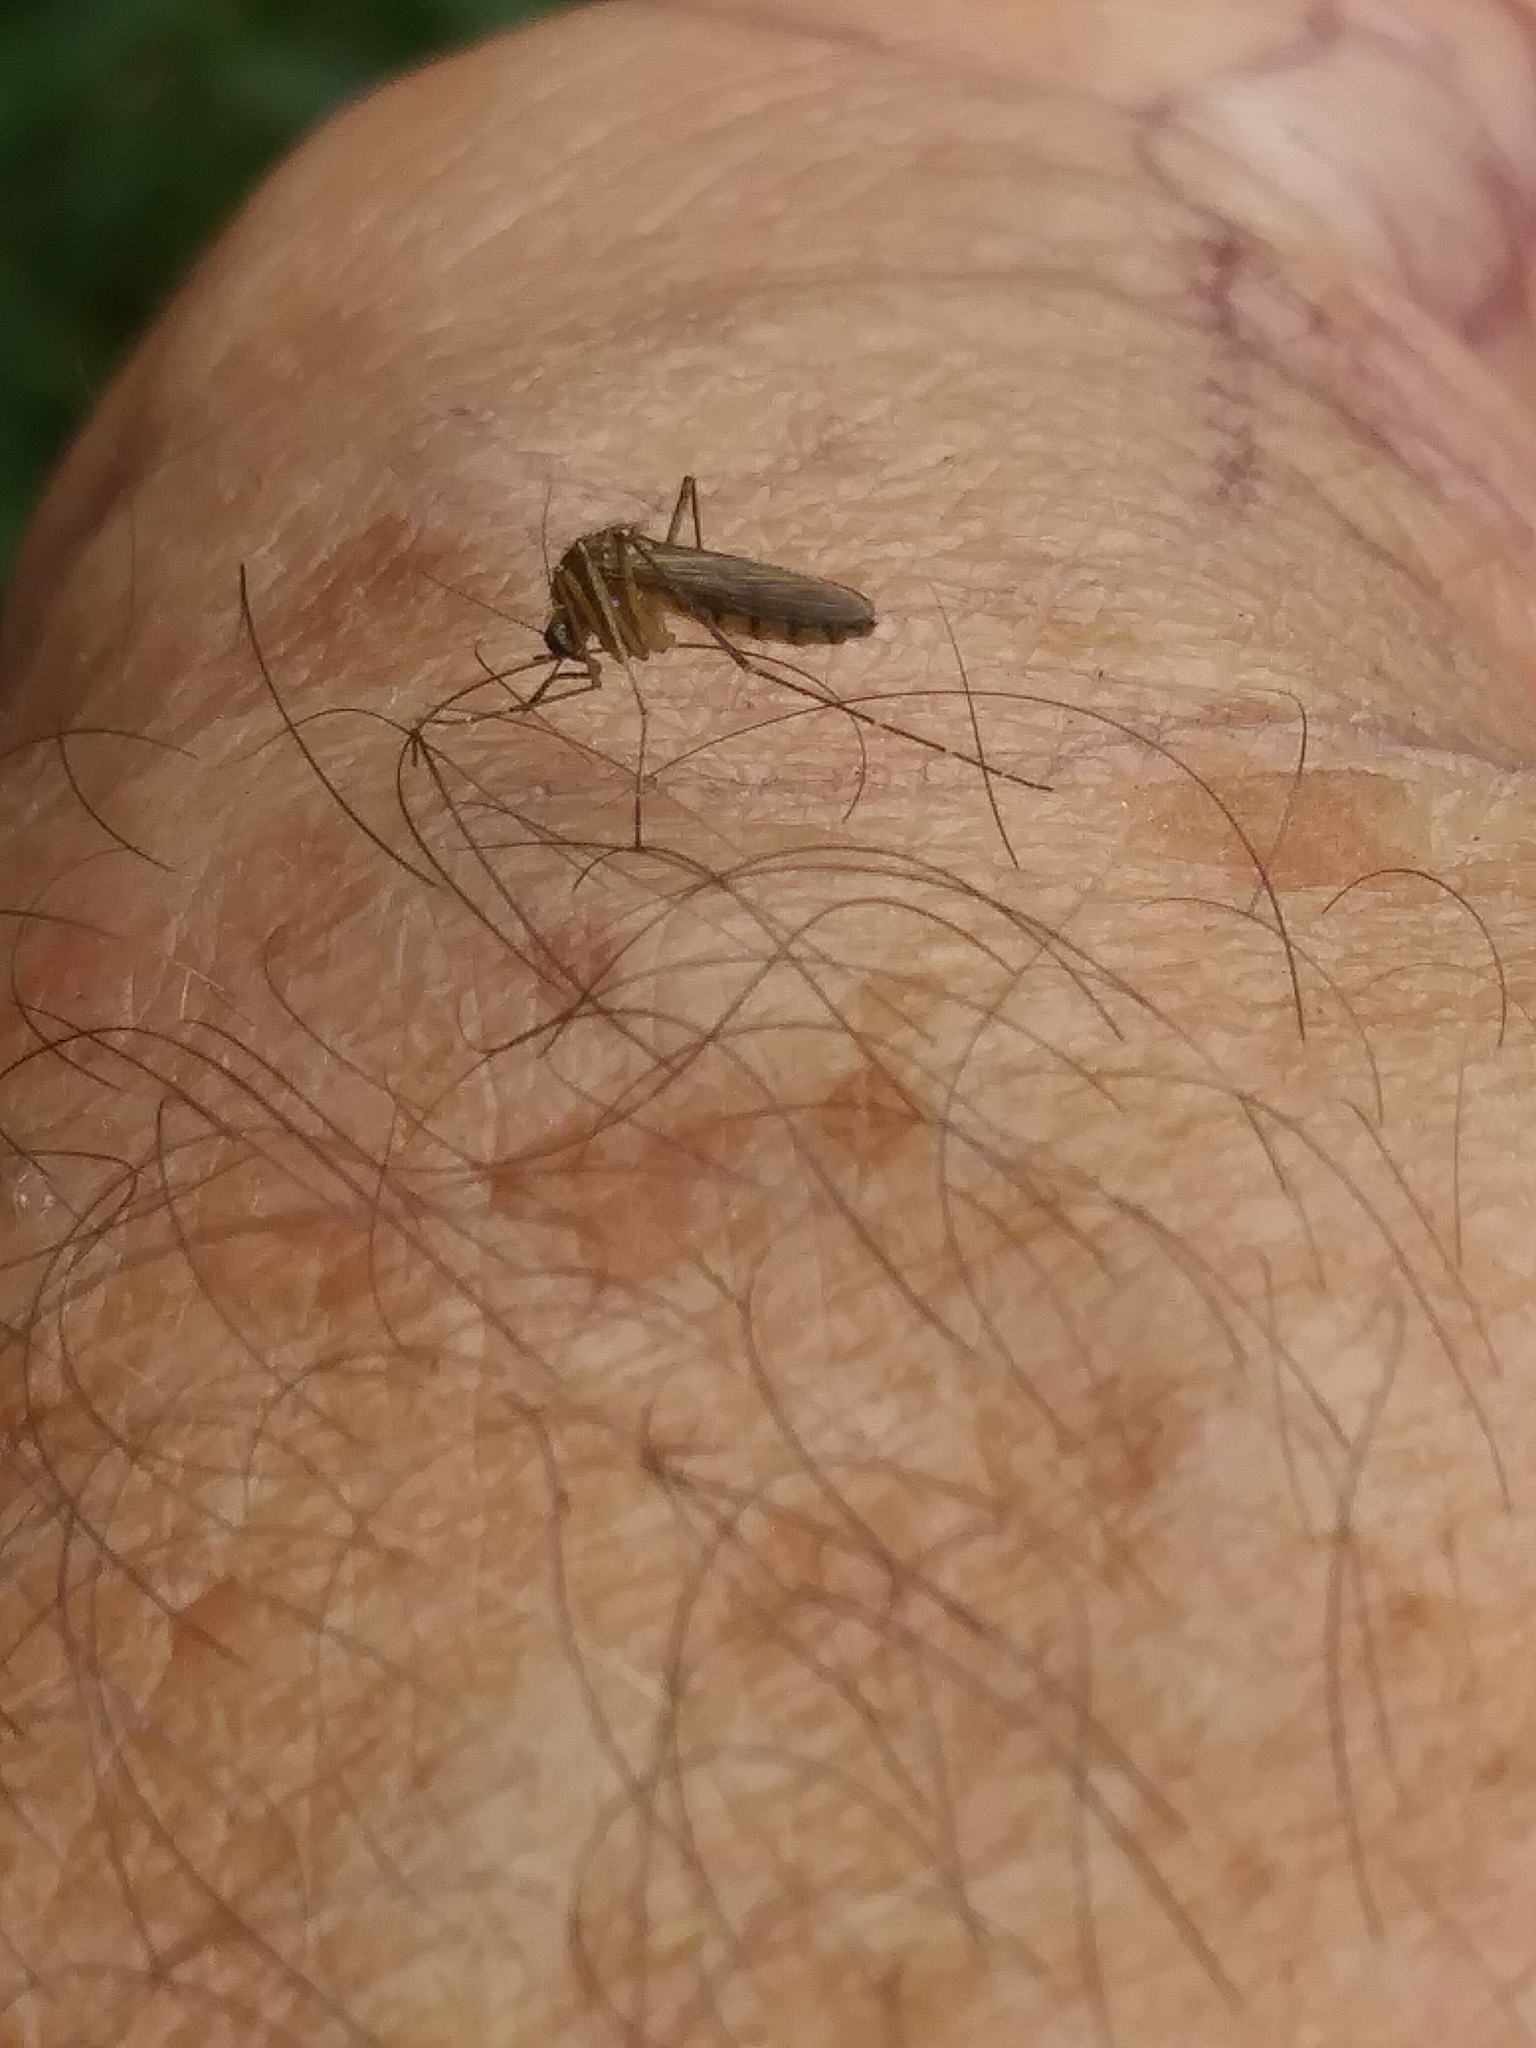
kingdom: Animalia
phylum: Arthropoda
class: Insecta
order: Diptera
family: Culicidae
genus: Aedes
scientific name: Aedes vexans
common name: Inland floodwater mosquito
